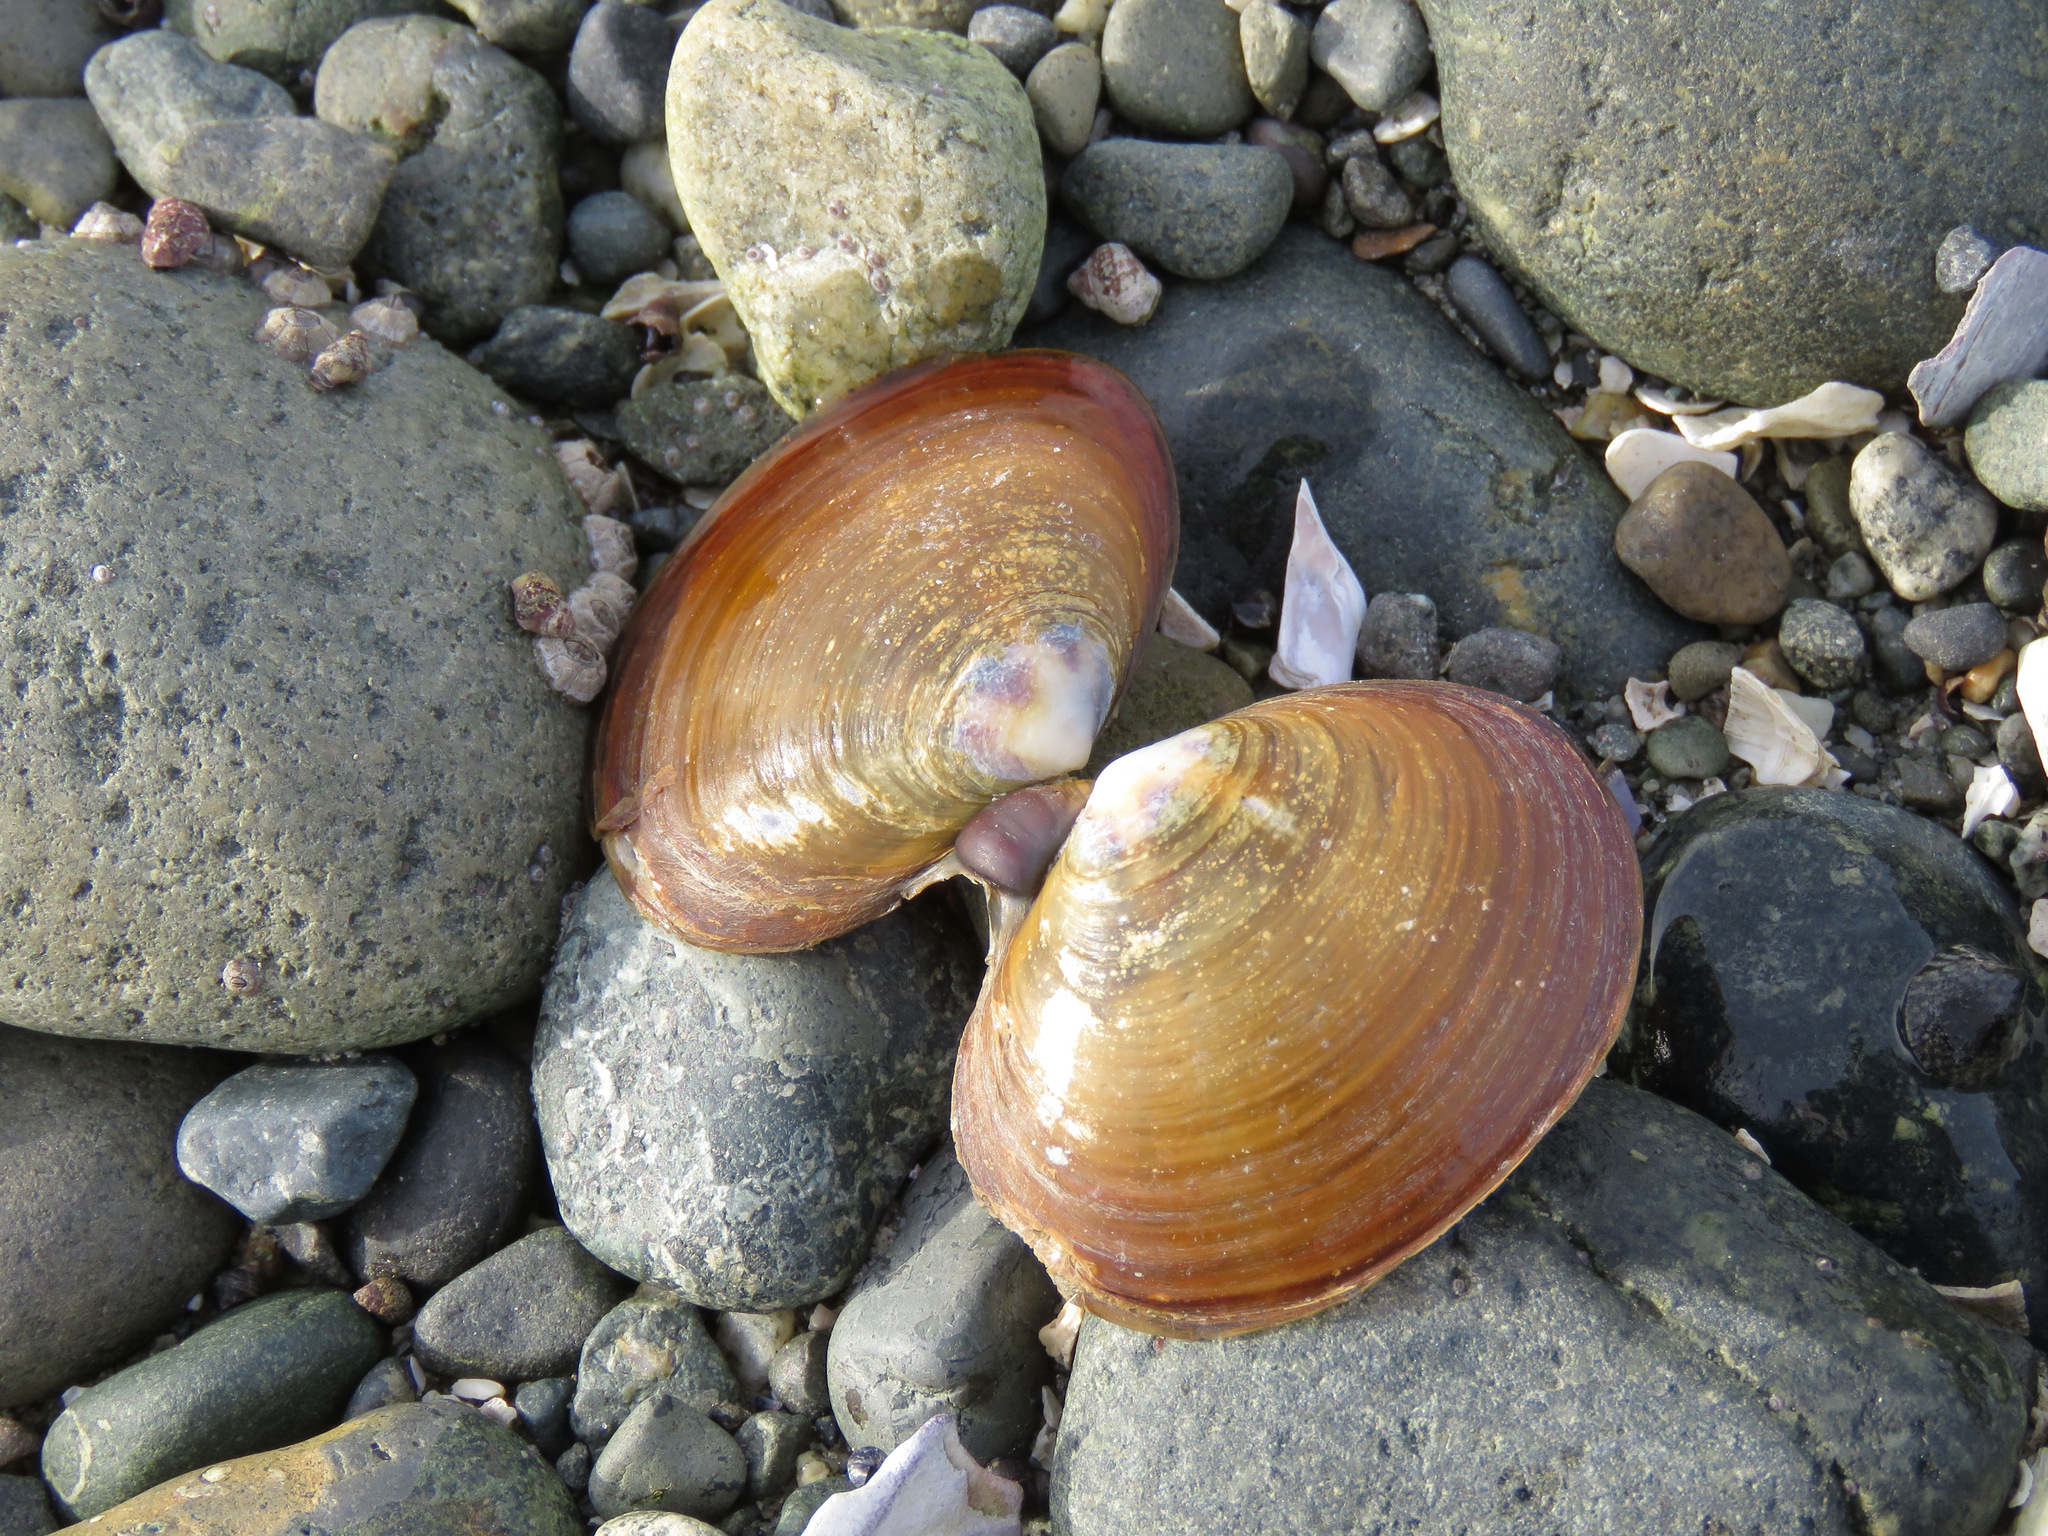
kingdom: Animalia
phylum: Mollusca
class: Bivalvia
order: Cardiida
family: Psammobiidae
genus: Nuttallia
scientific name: Nuttallia obscurata
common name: Purple mahogany-clam
